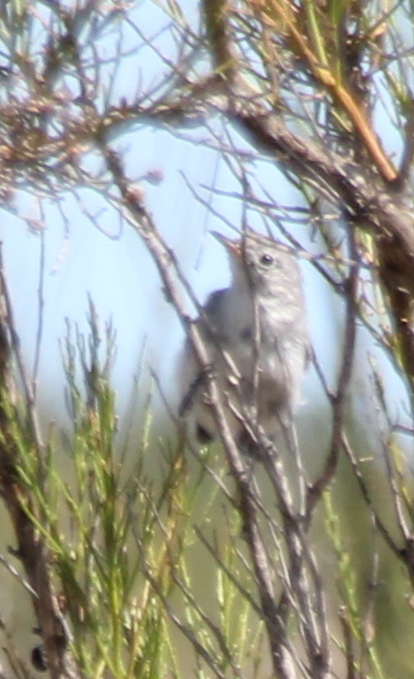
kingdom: Animalia
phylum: Chordata
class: Aves
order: Passeriformes
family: Polioptilidae
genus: Polioptila
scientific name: Polioptila caerulea
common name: Blue-gray gnatcatcher
